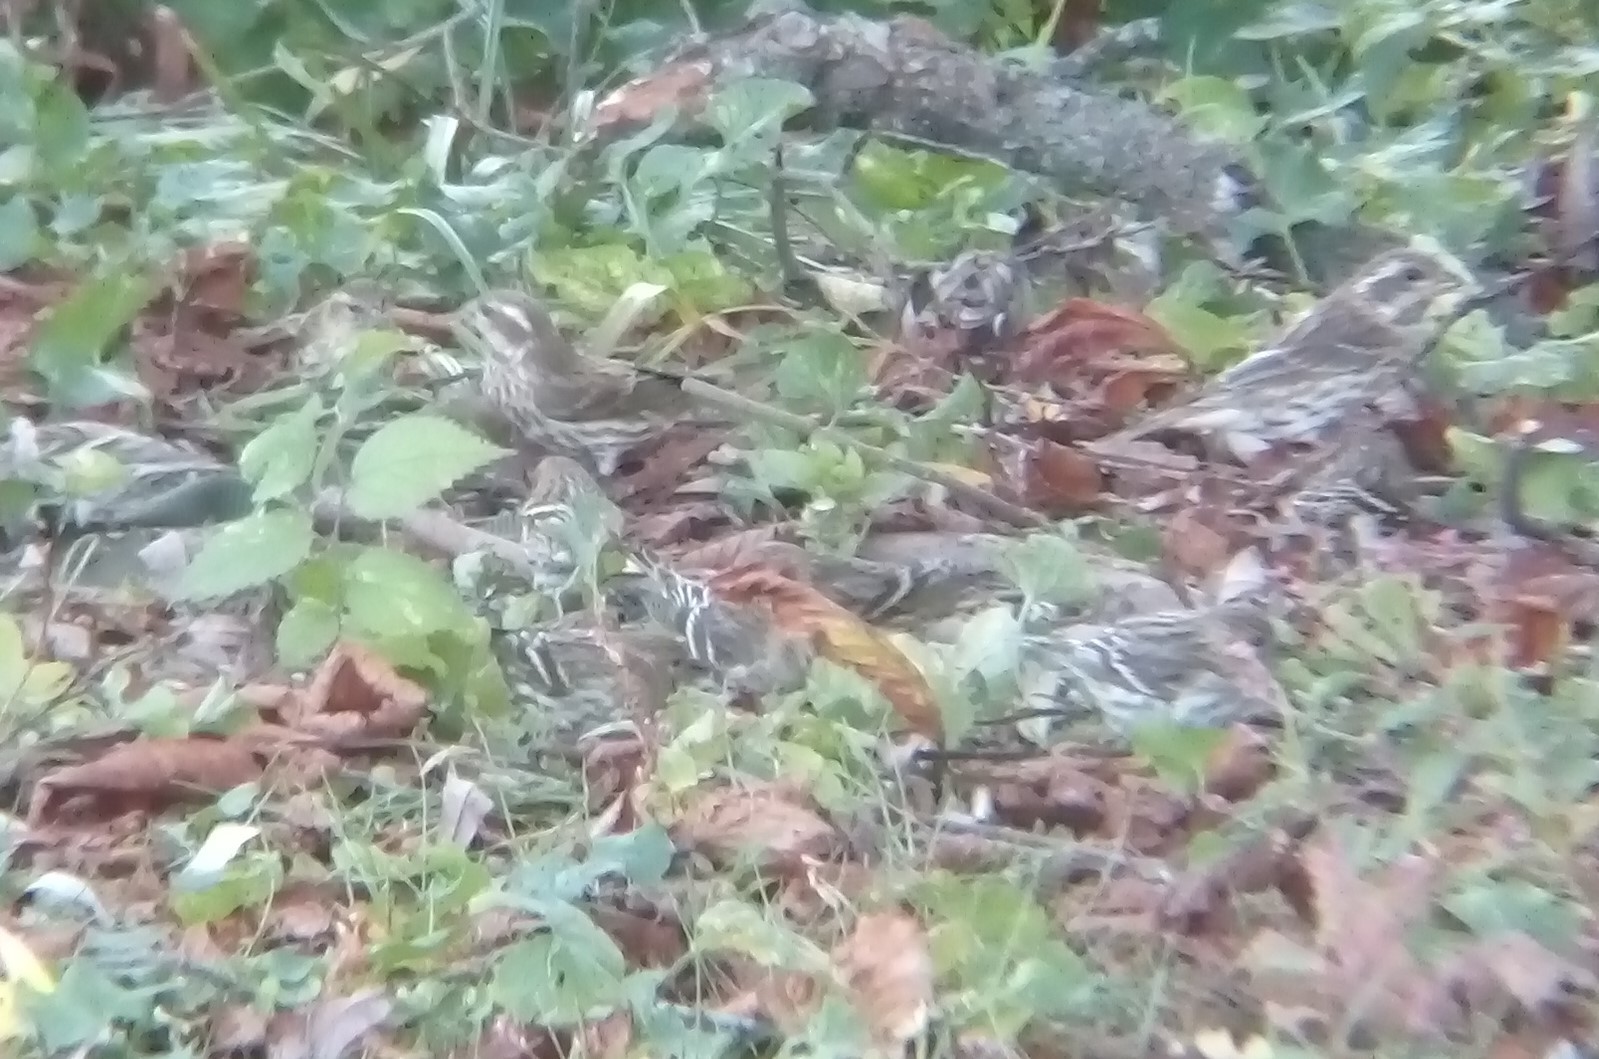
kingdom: Animalia
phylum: Chordata
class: Aves
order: Passeriformes
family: Fringillidae
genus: Haemorhous
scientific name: Haemorhous purpureus
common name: Purple finch
